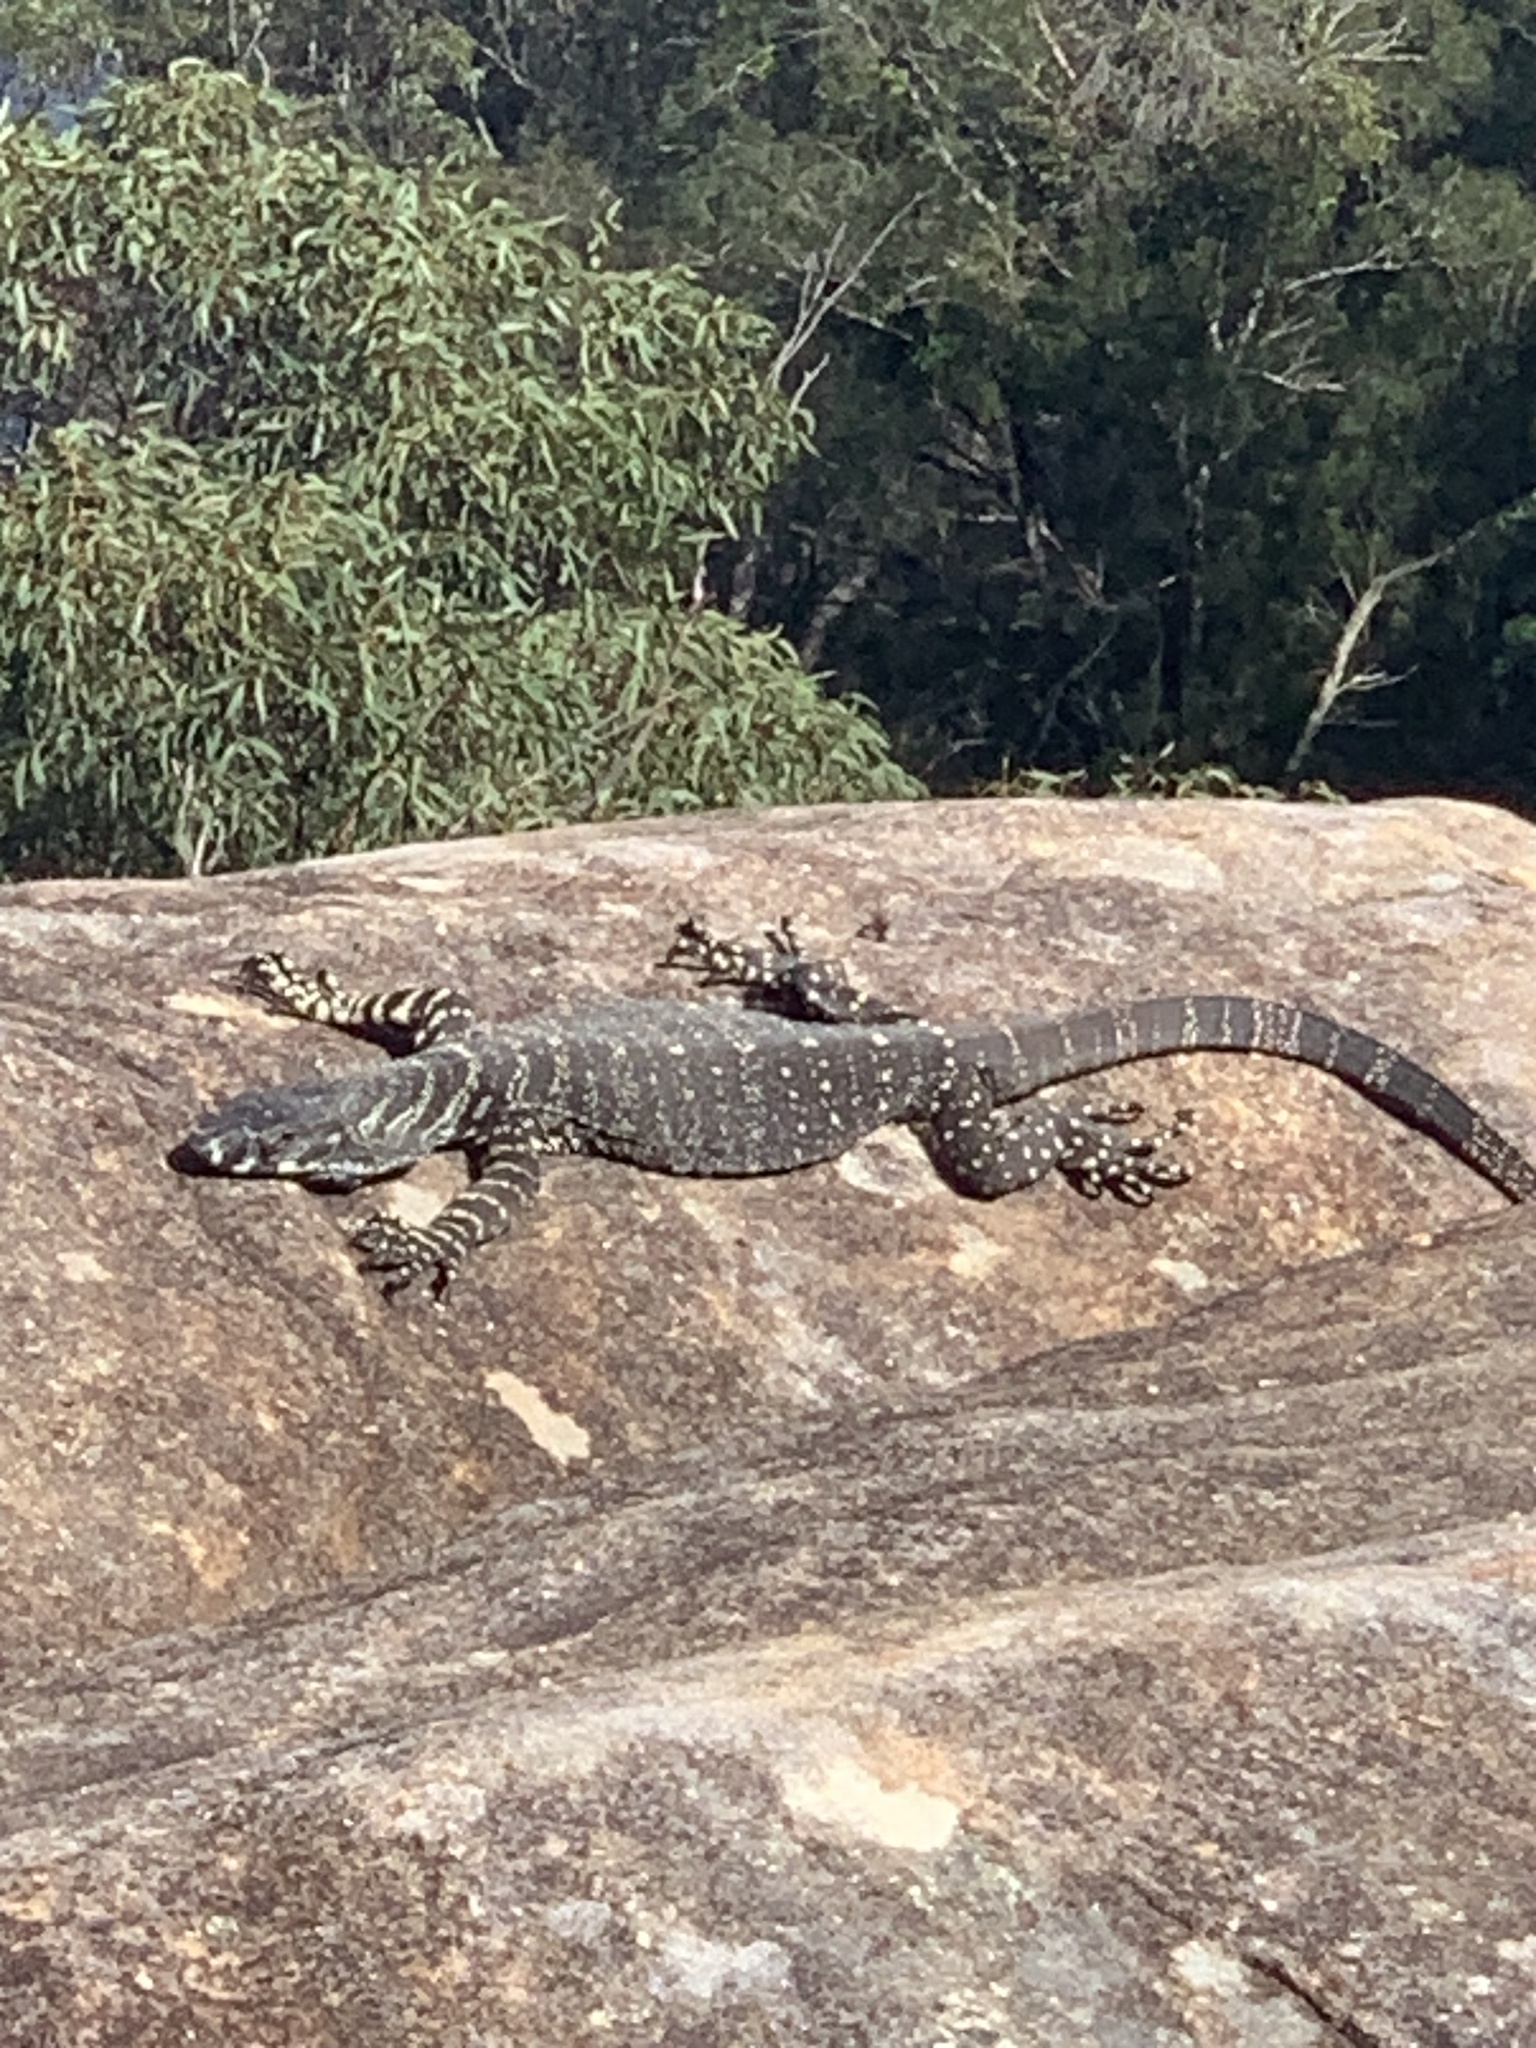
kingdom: Animalia
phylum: Chordata
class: Squamata
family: Varanidae
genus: Varanus
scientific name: Varanus varius
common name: Lace monitor
